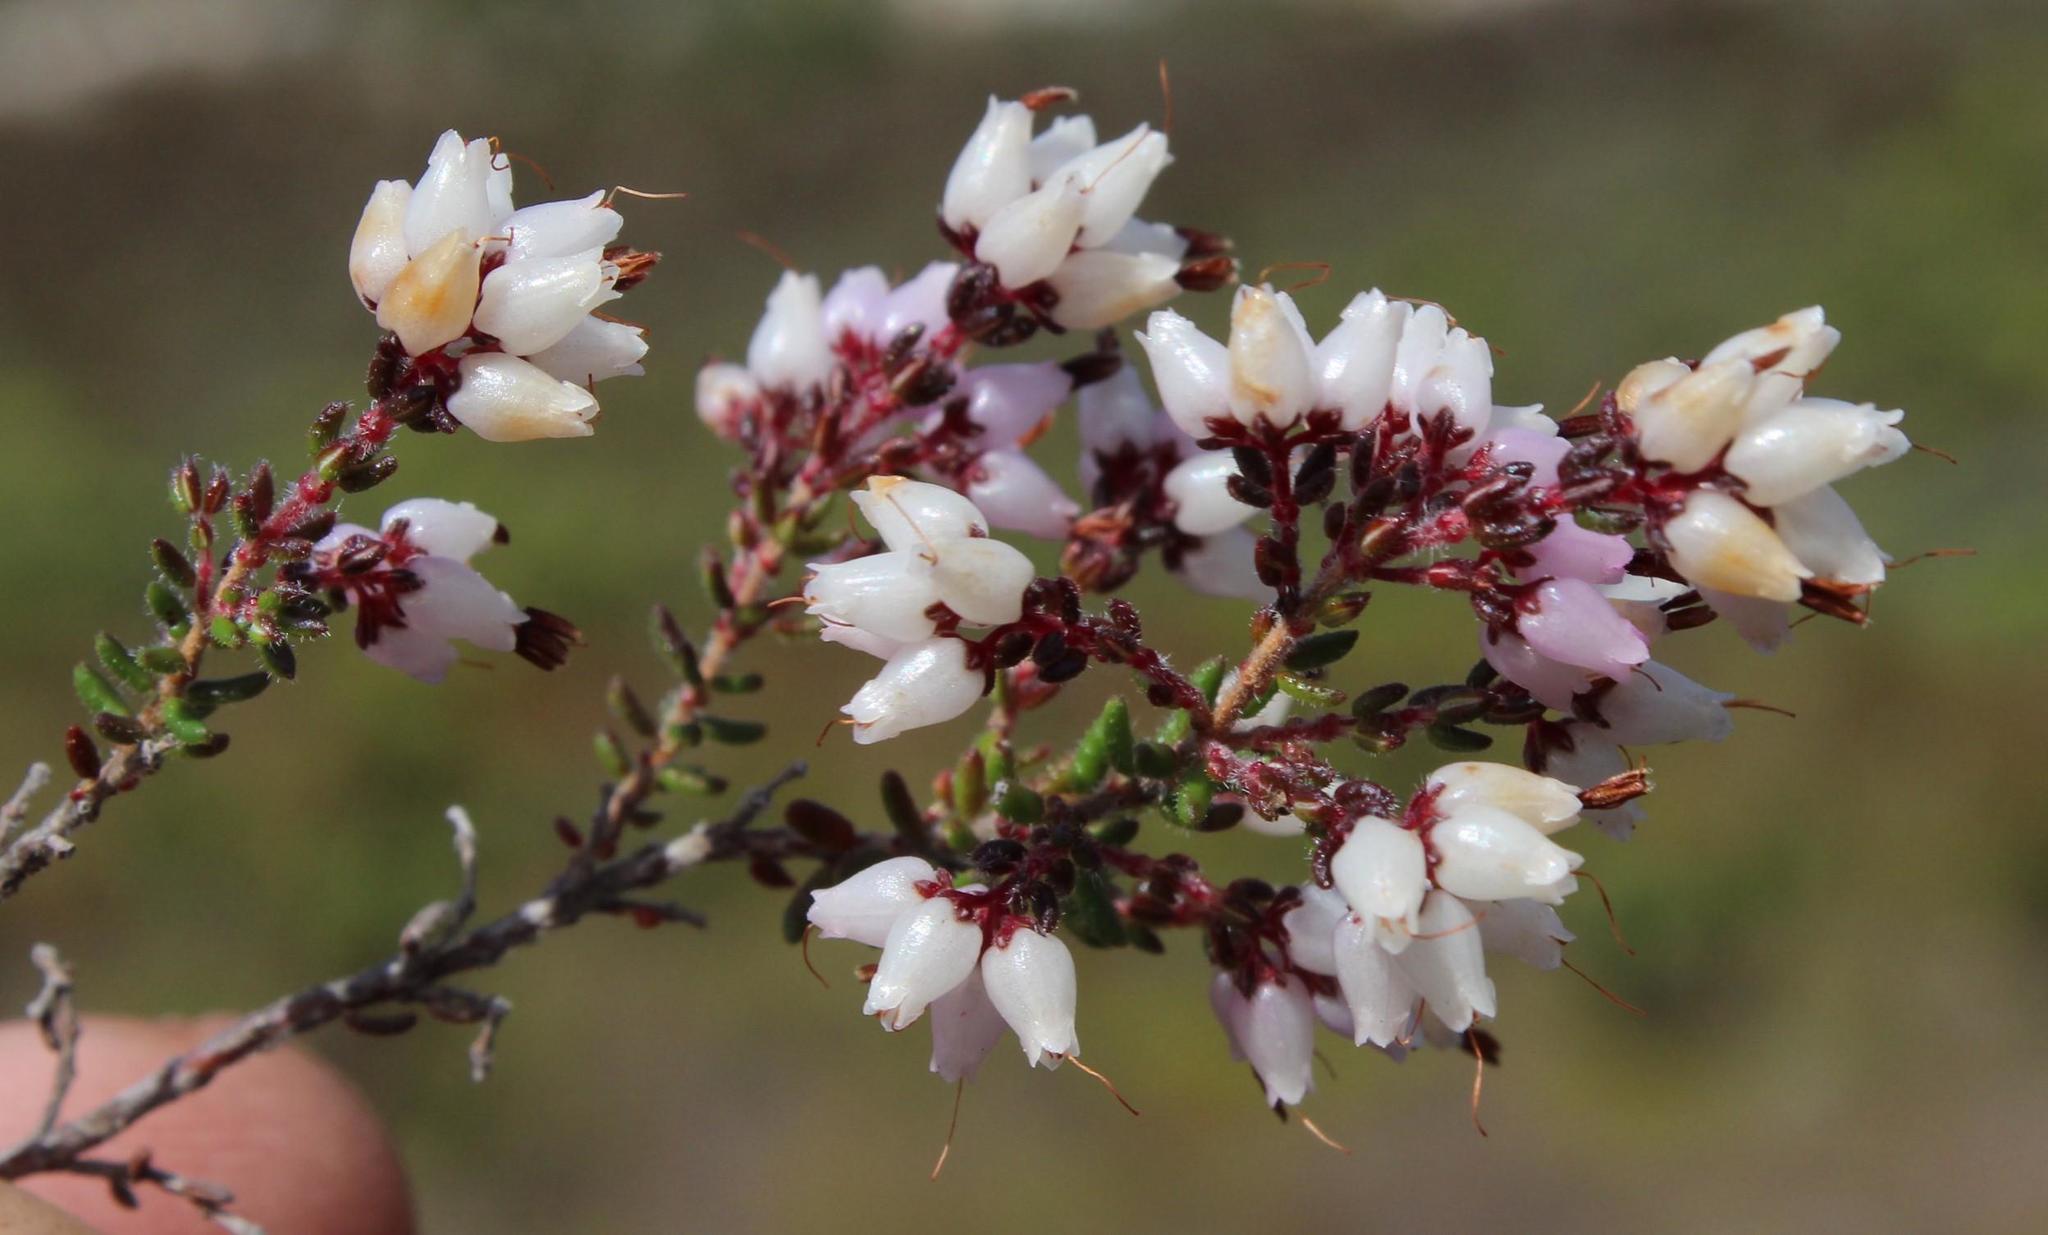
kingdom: Plantae
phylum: Tracheophyta
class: Magnoliopsida
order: Ericales
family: Ericaceae
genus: Erica
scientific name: Erica interrupta
